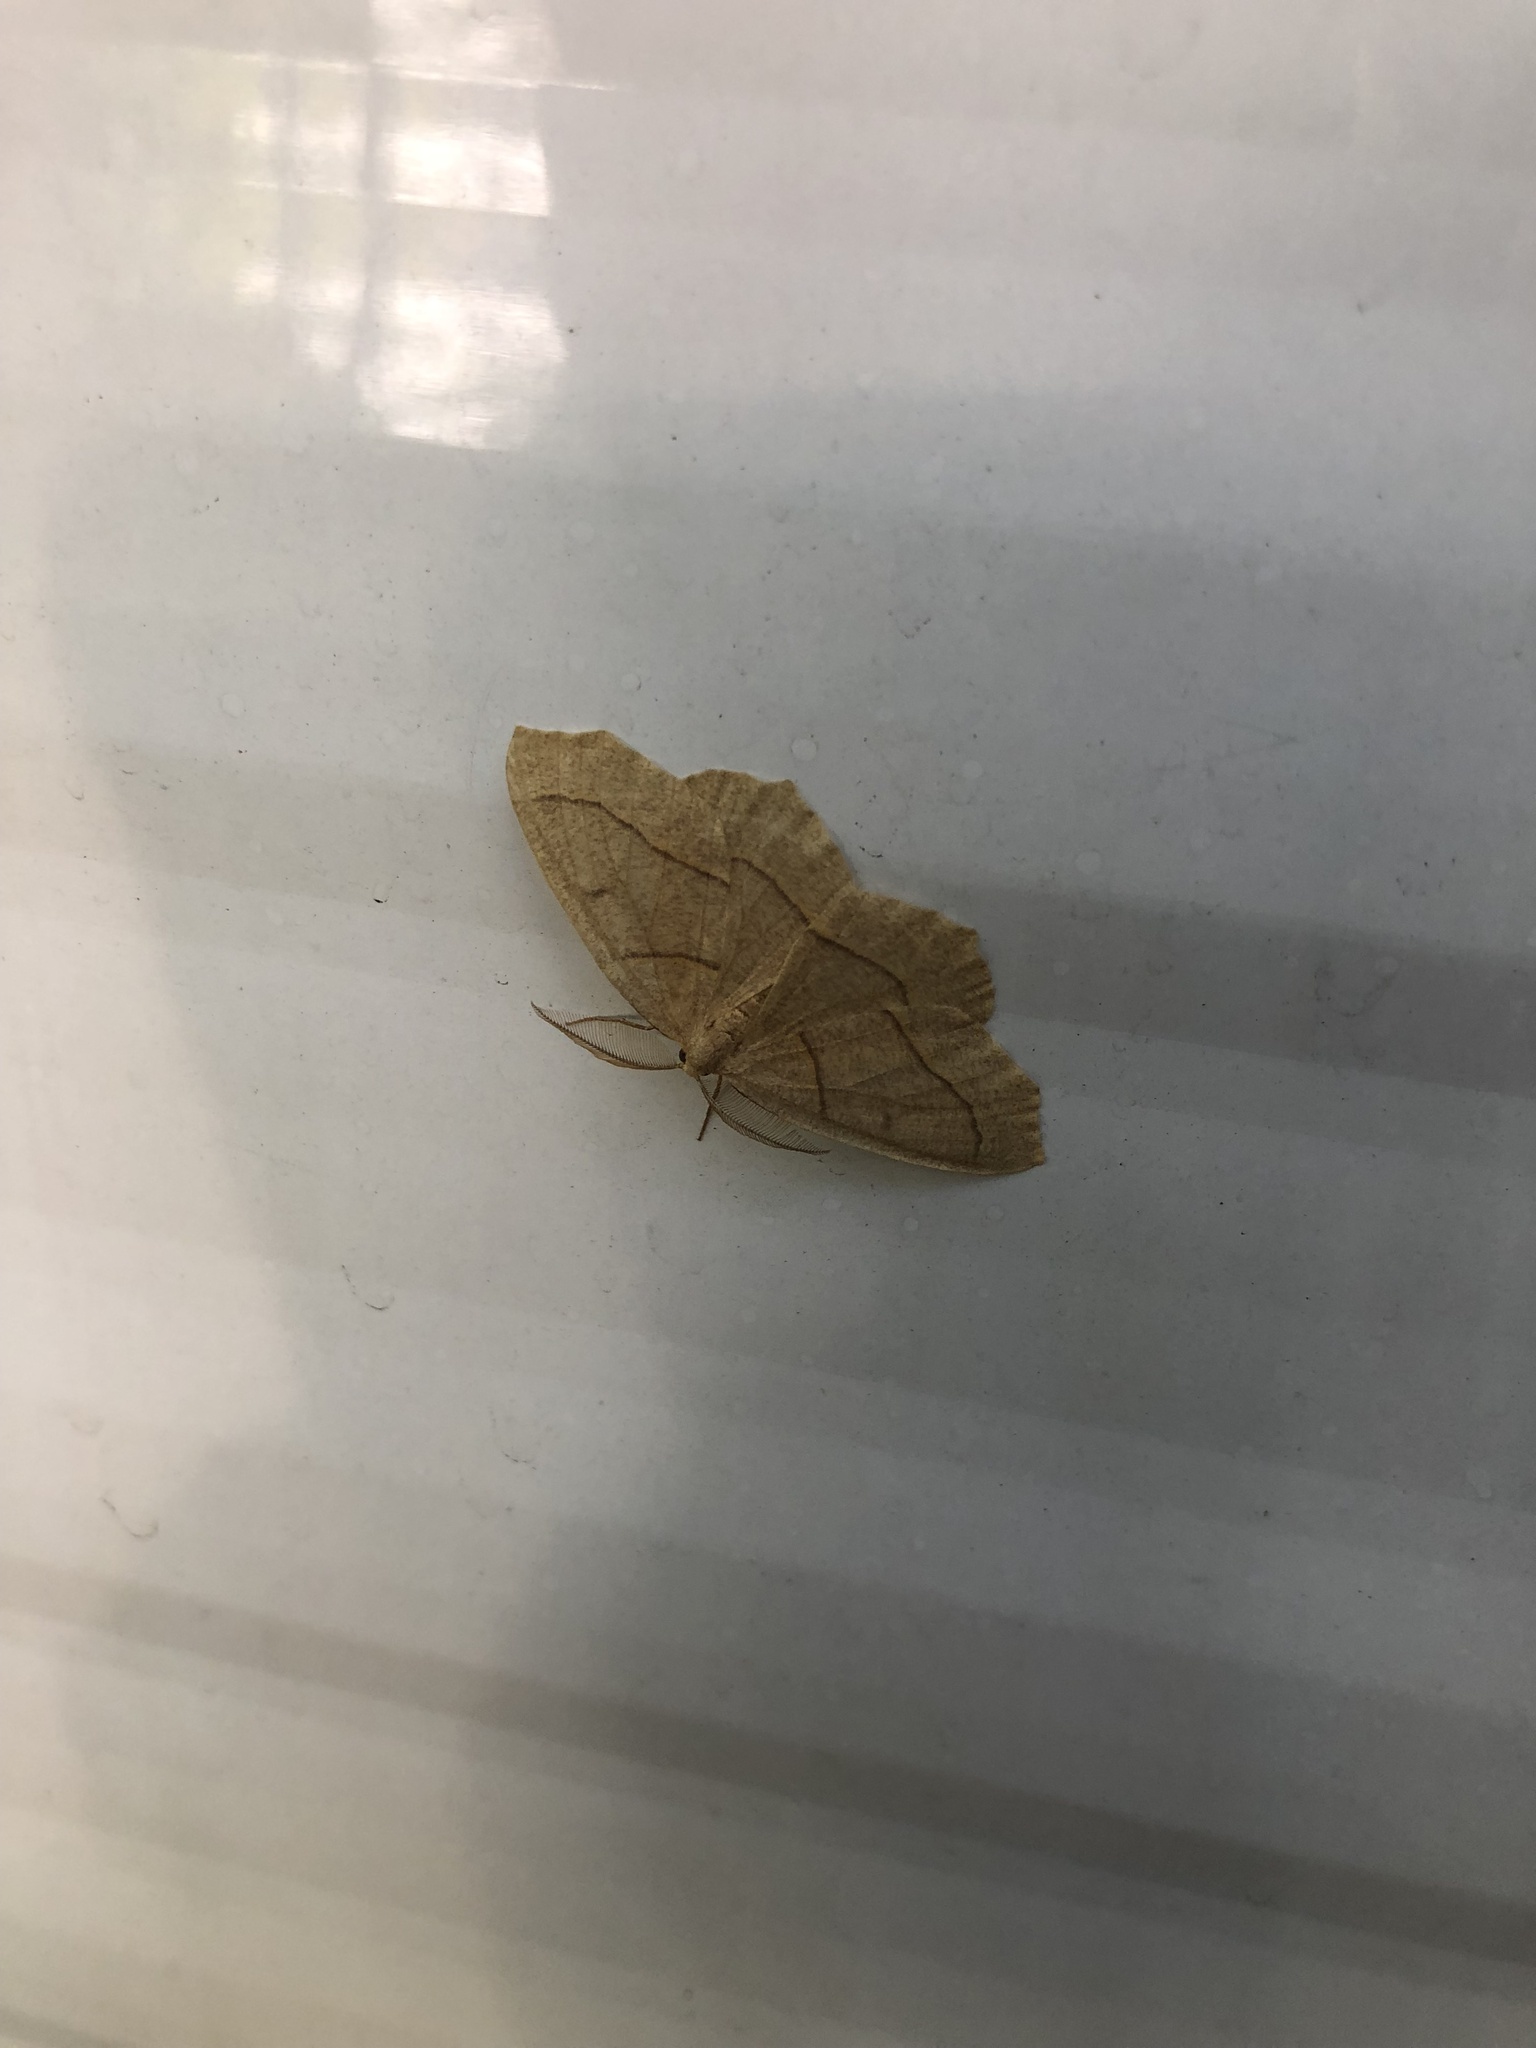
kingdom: Animalia
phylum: Arthropoda
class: Insecta
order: Lepidoptera
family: Geometridae
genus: Lambdina
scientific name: Lambdina fiscellaria
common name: Hemlock looper
